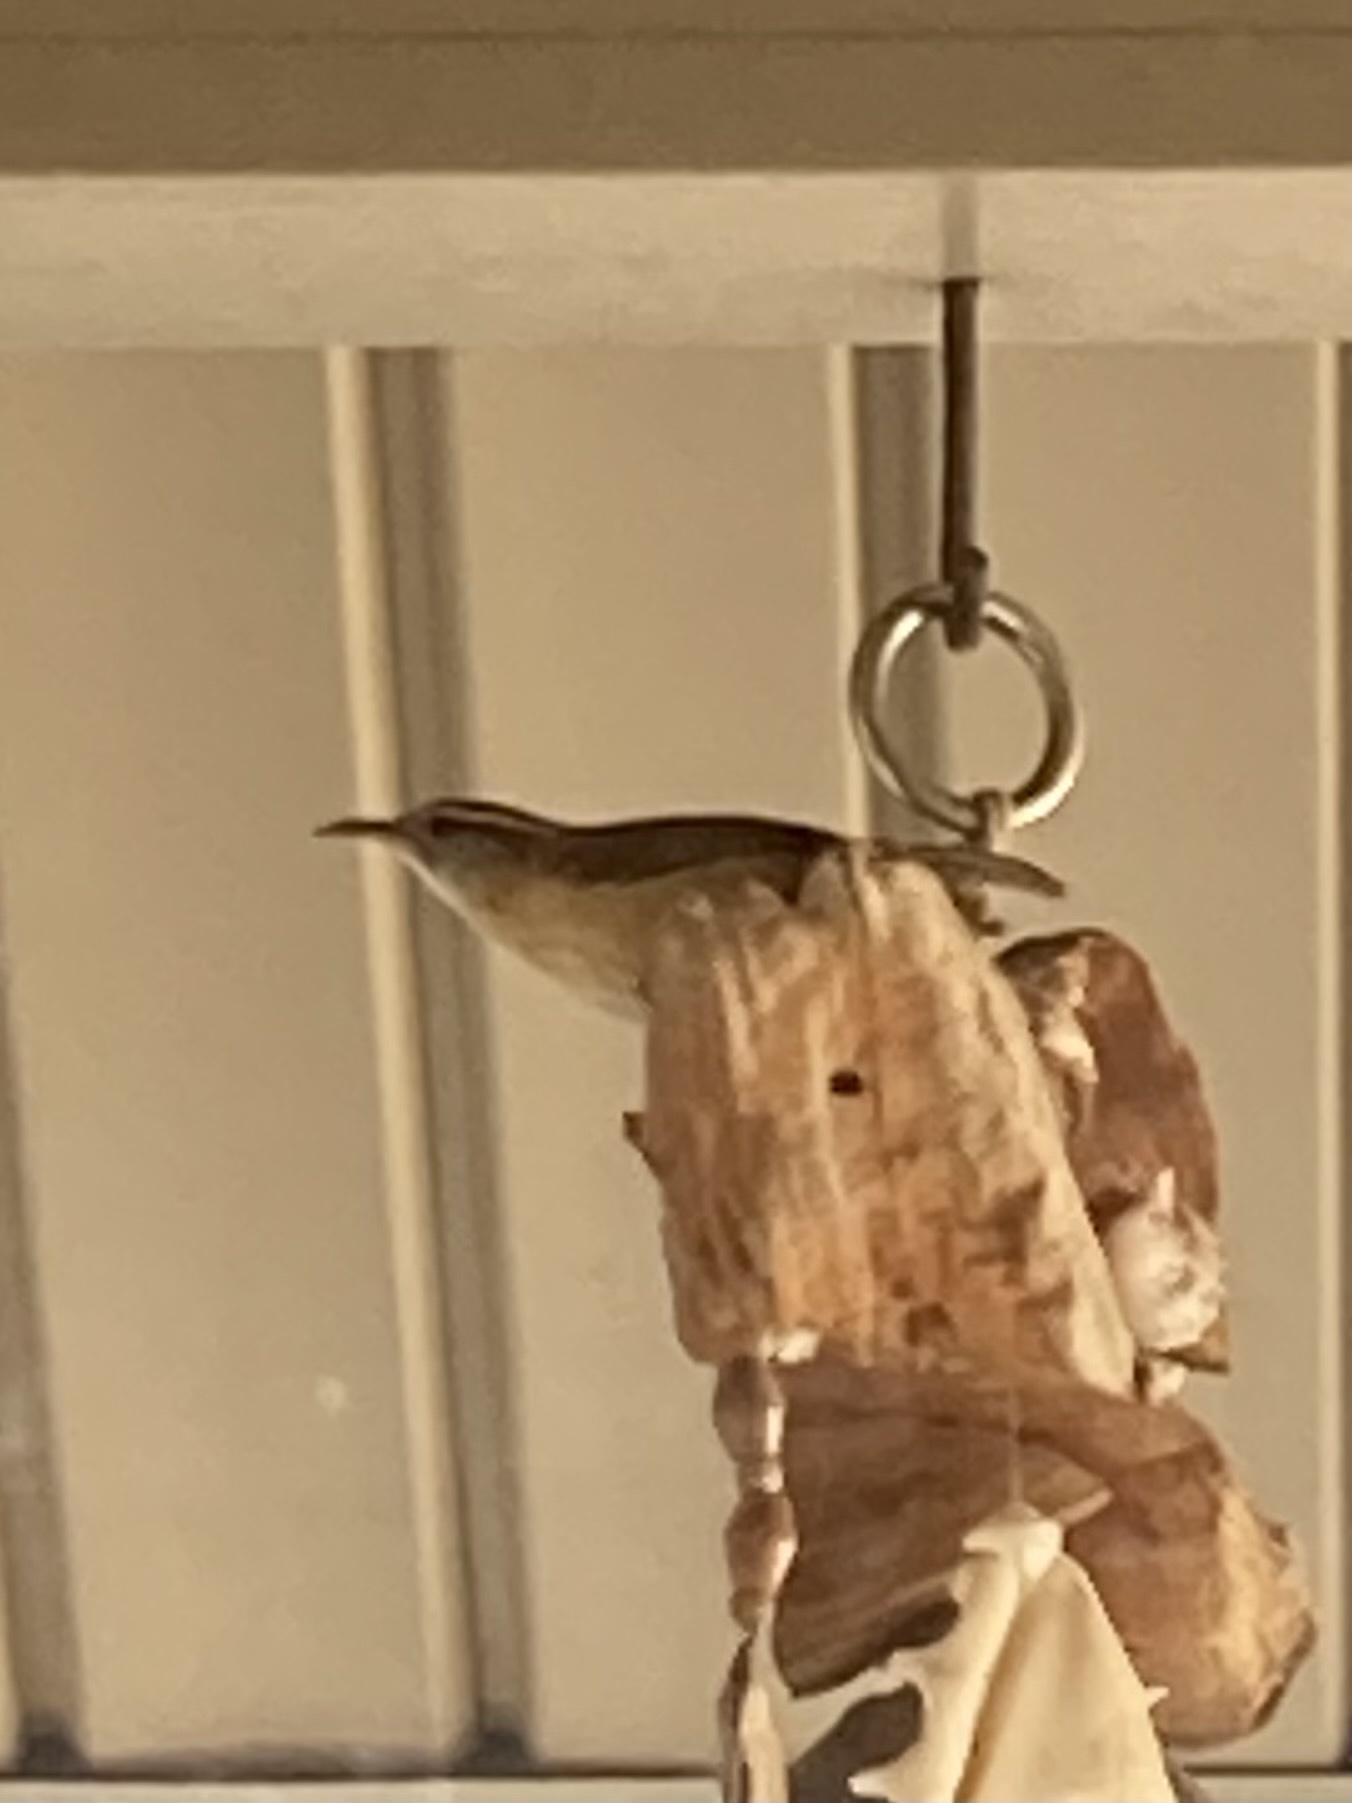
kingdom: Animalia
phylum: Chordata
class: Aves
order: Passeriformes
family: Troglodytidae
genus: Thryothorus
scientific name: Thryothorus ludovicianus
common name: Carolina wren
